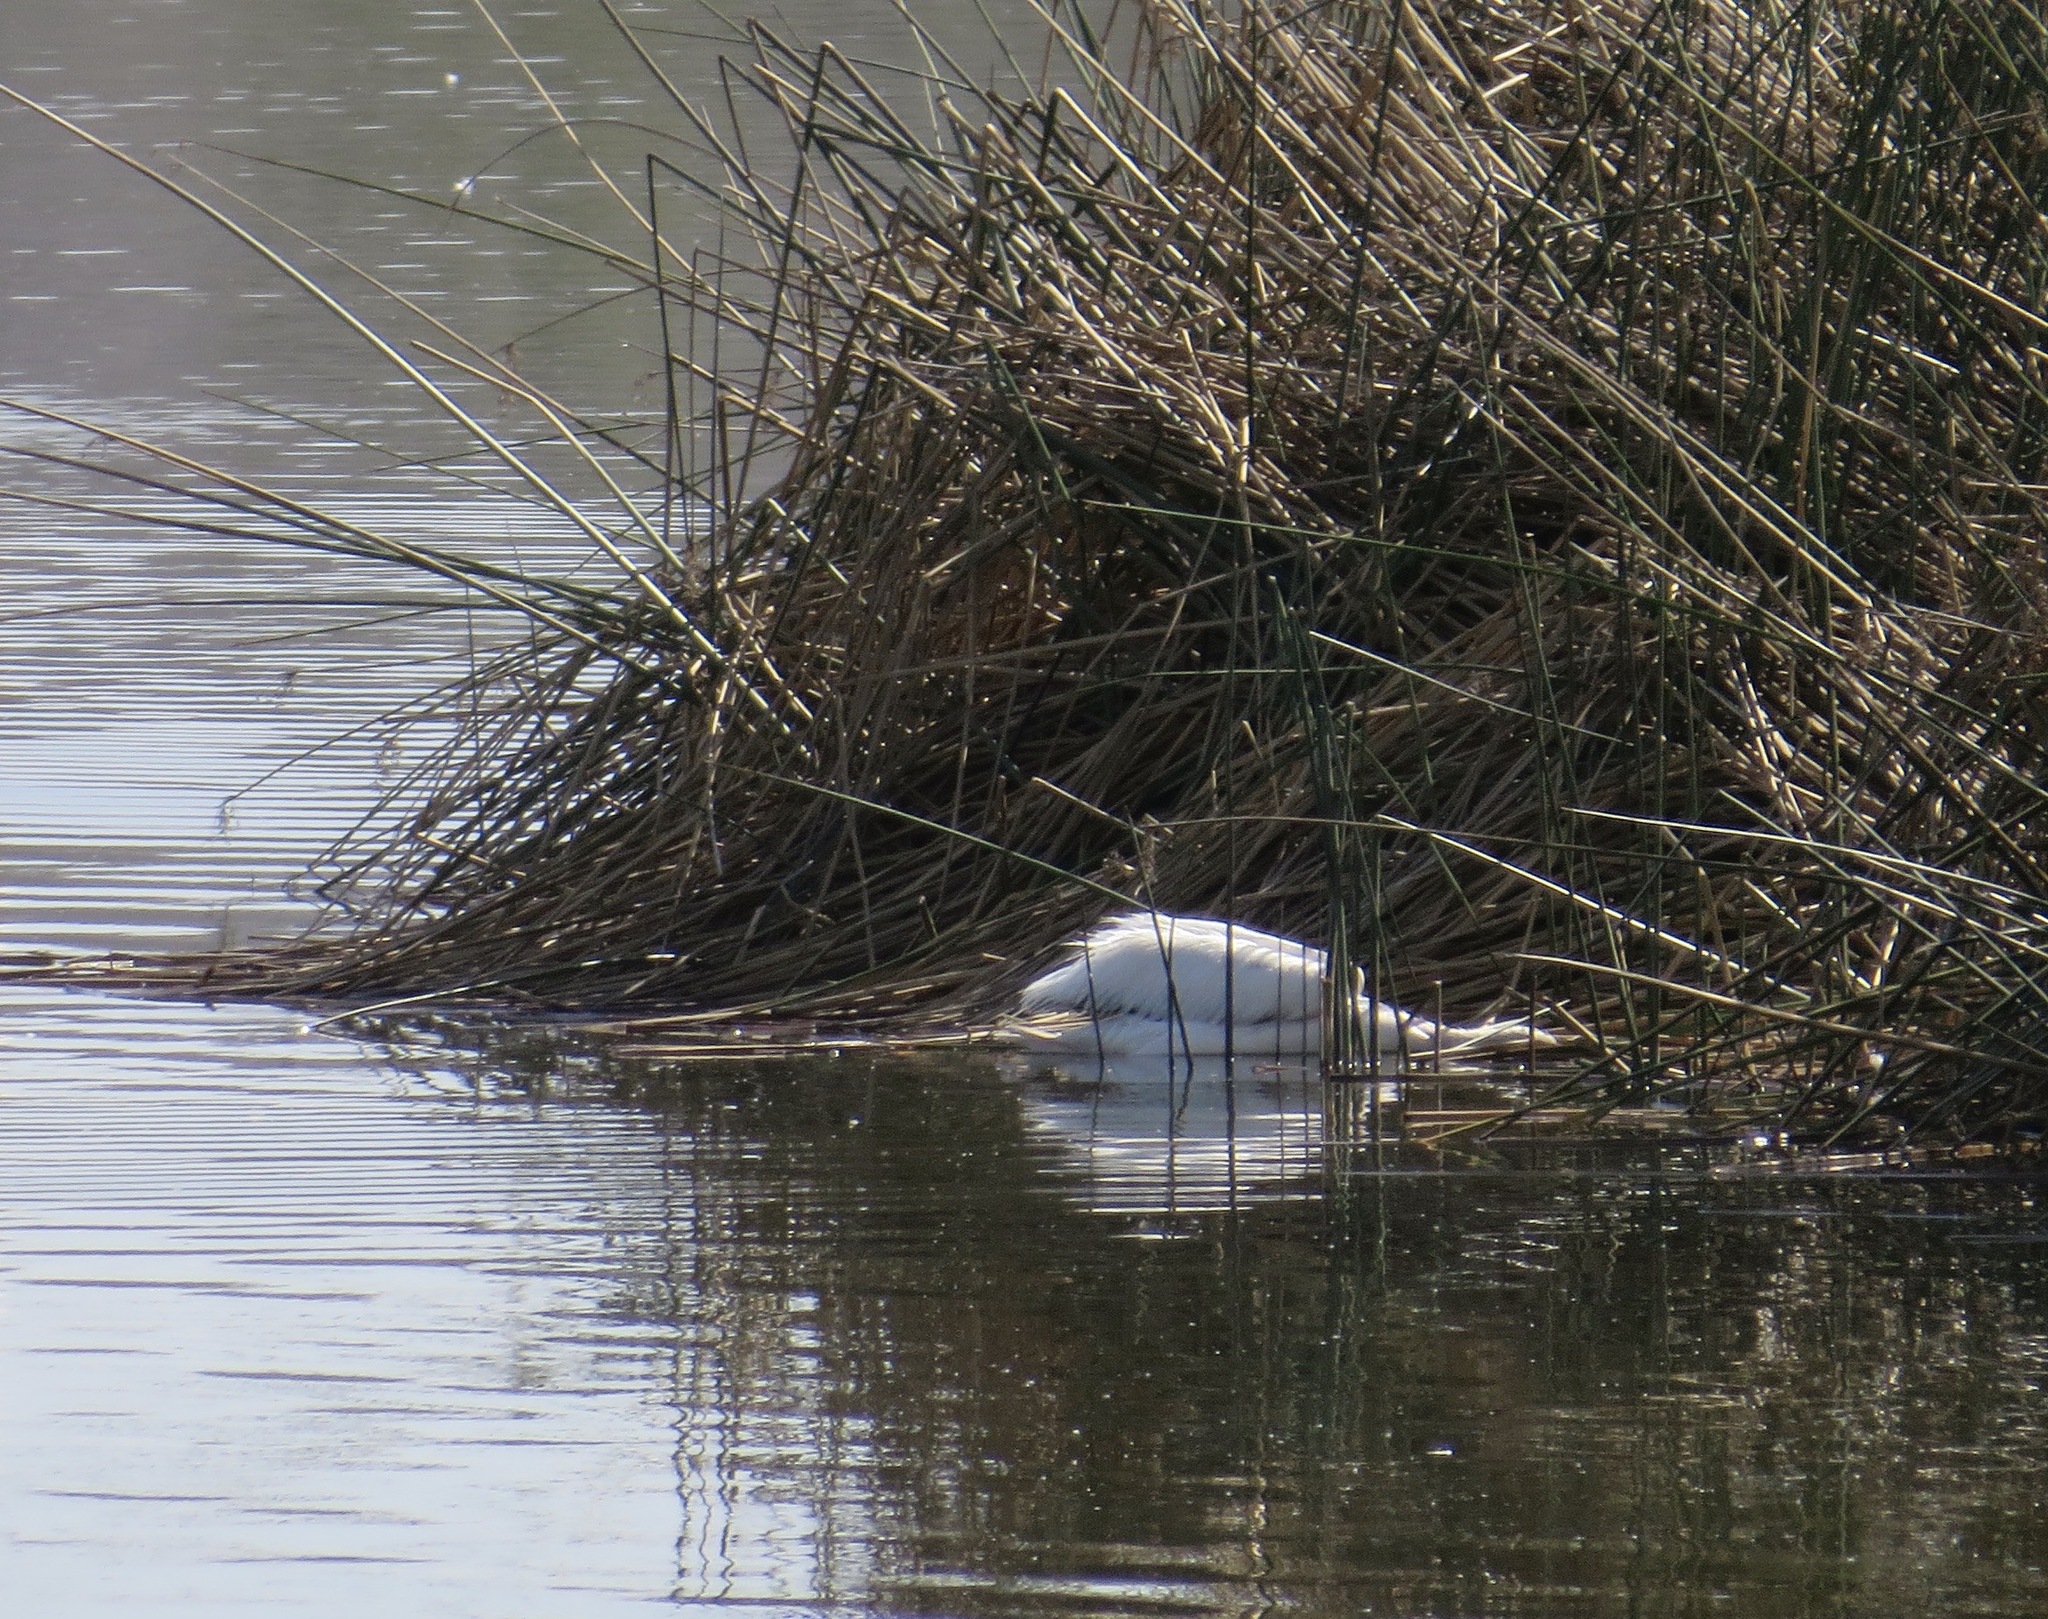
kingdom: Animalia
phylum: Chordata
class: Aves
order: Pelecaniformes
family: Pelecanidae
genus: Pelecanus
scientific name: Pelecanus erythrorhynchos
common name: American white pelican
